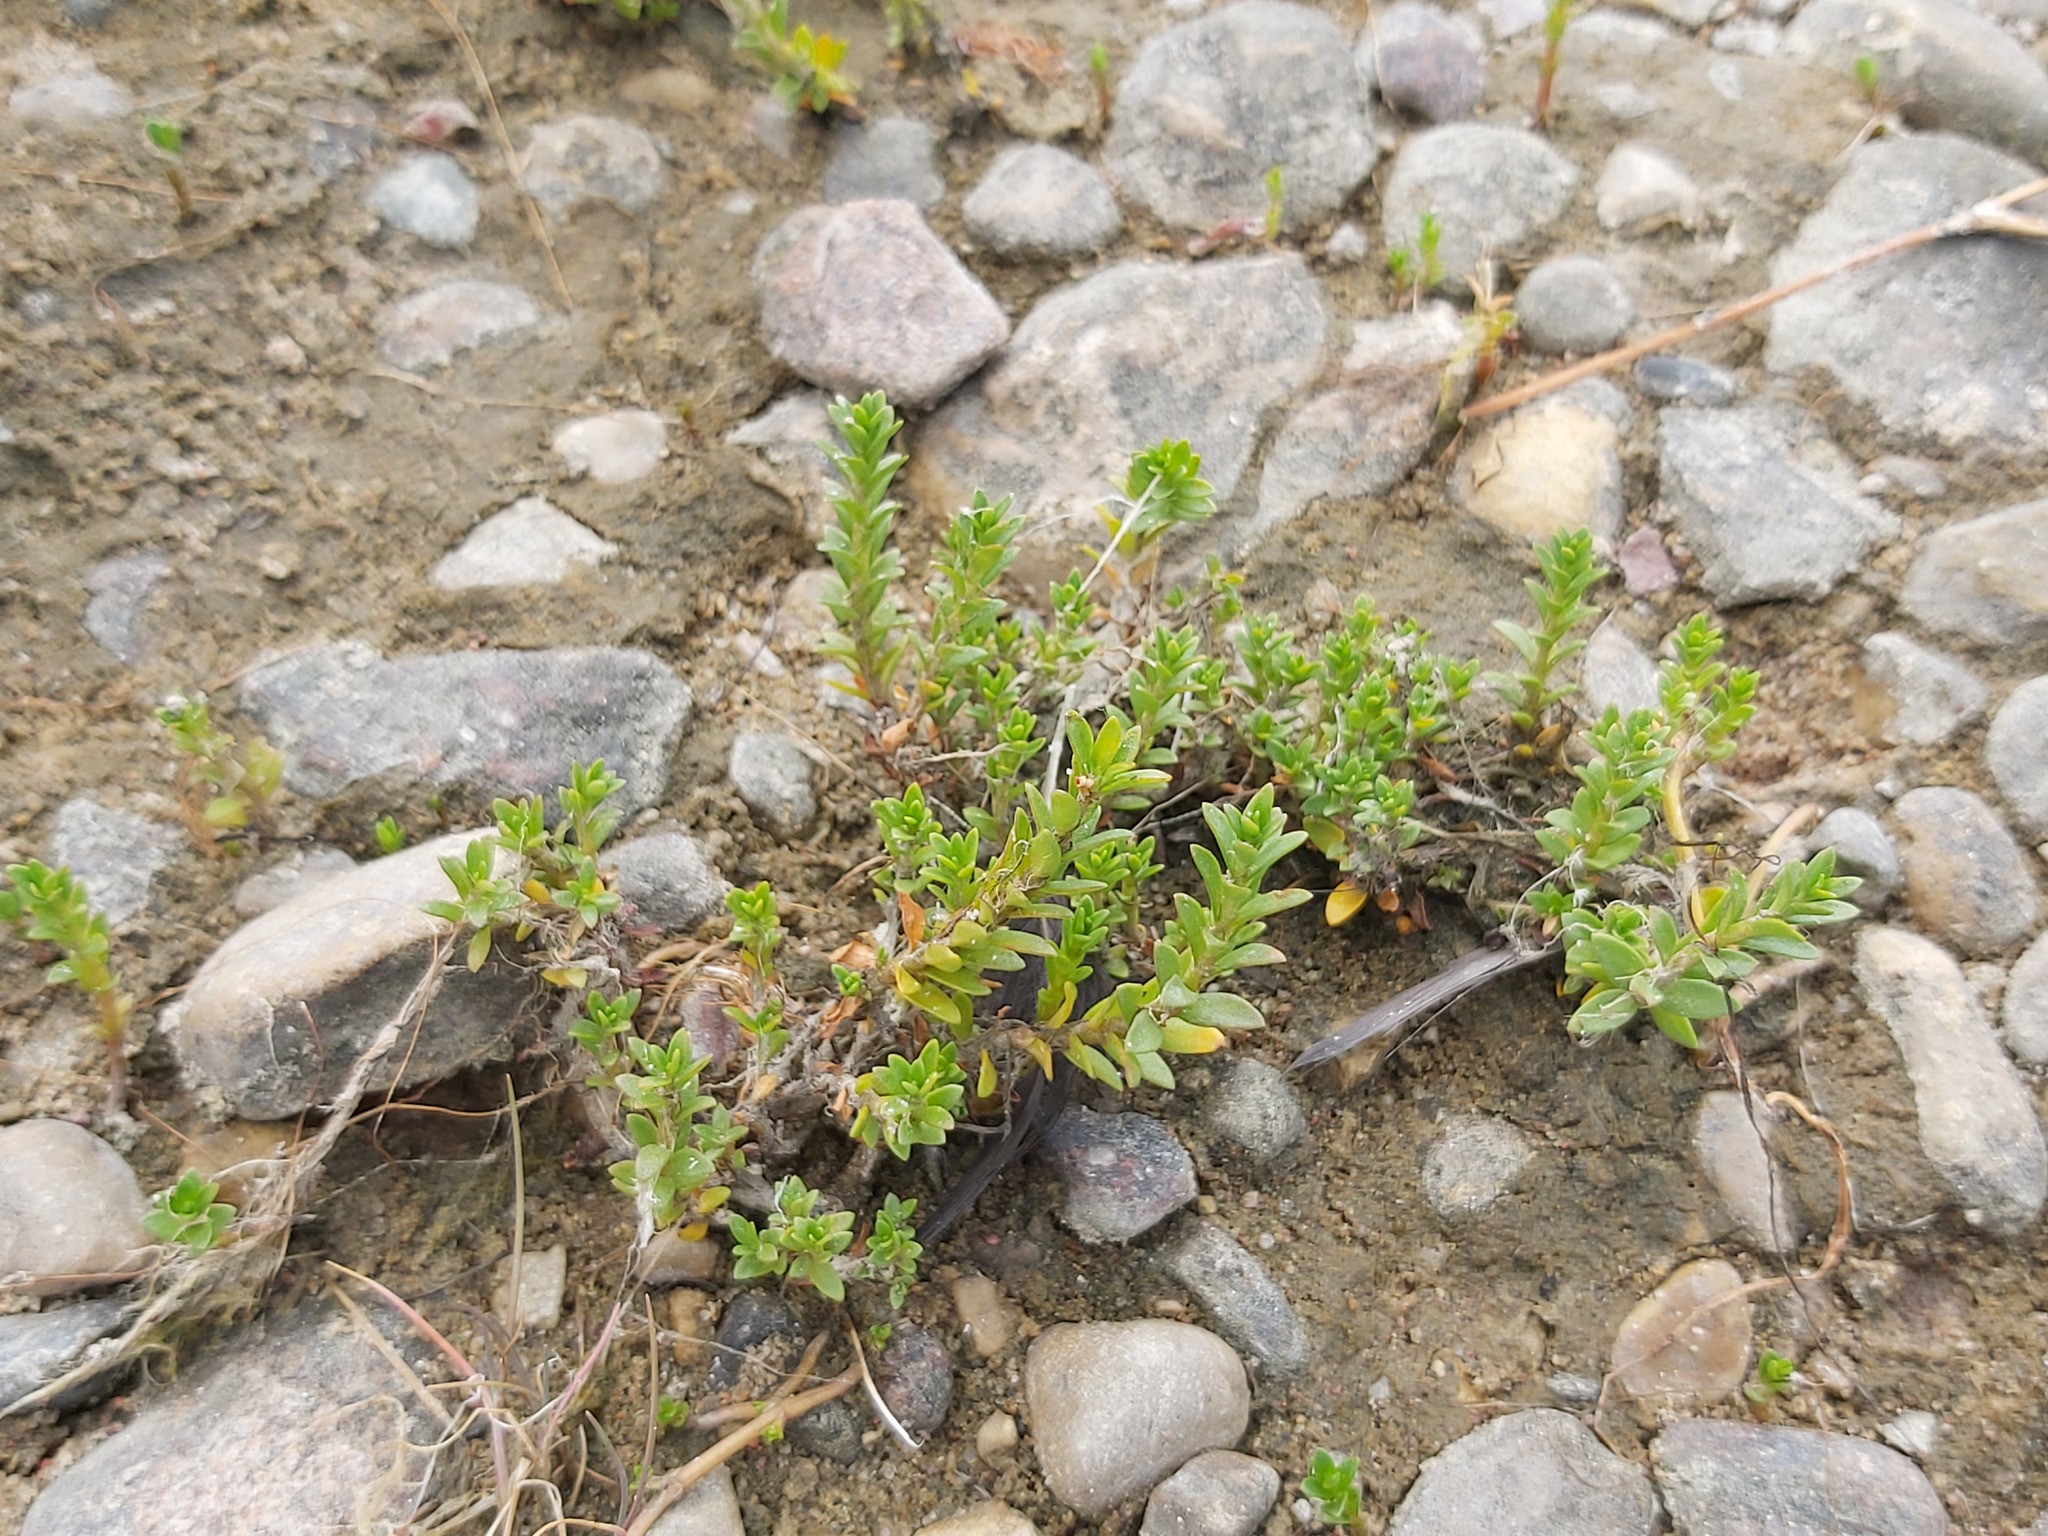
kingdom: Plantae
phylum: Tracheophyta
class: Magnoliopsida
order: Ericales
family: Primulaceae
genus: Lysimachia
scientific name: Lysimachia maritima
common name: Sea milkwort
